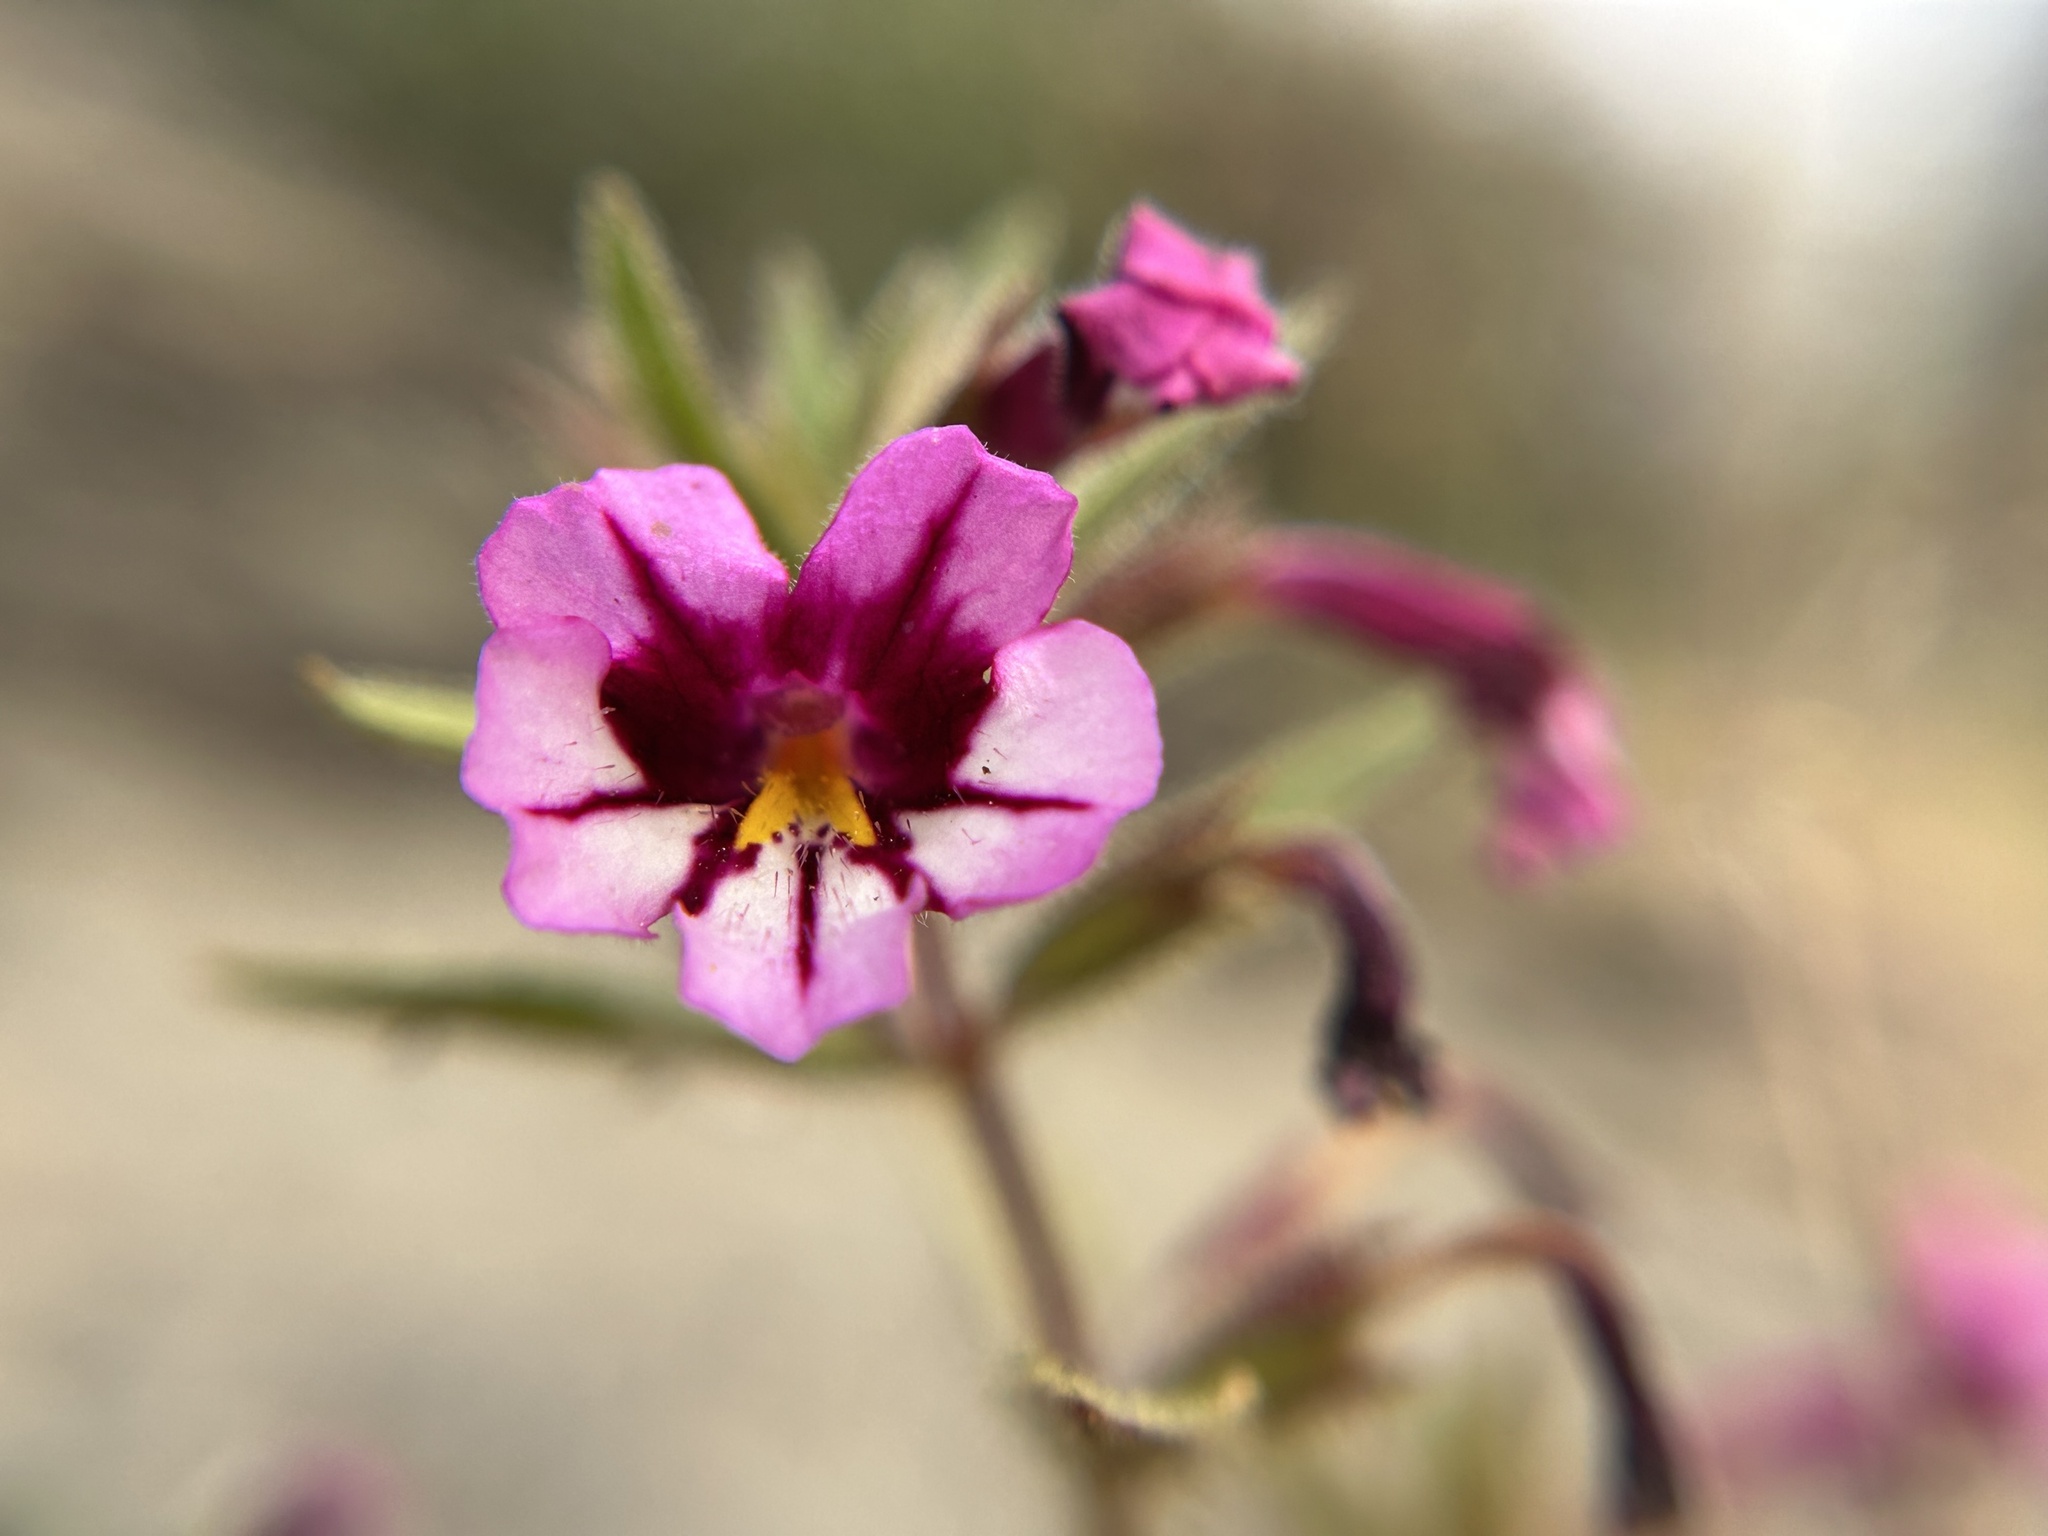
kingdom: Plantae
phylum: Tracheophyta
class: Magnoliopsida
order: Lamiales
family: Phrymaceae
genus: Diplacus
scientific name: Diplacus graniticola
